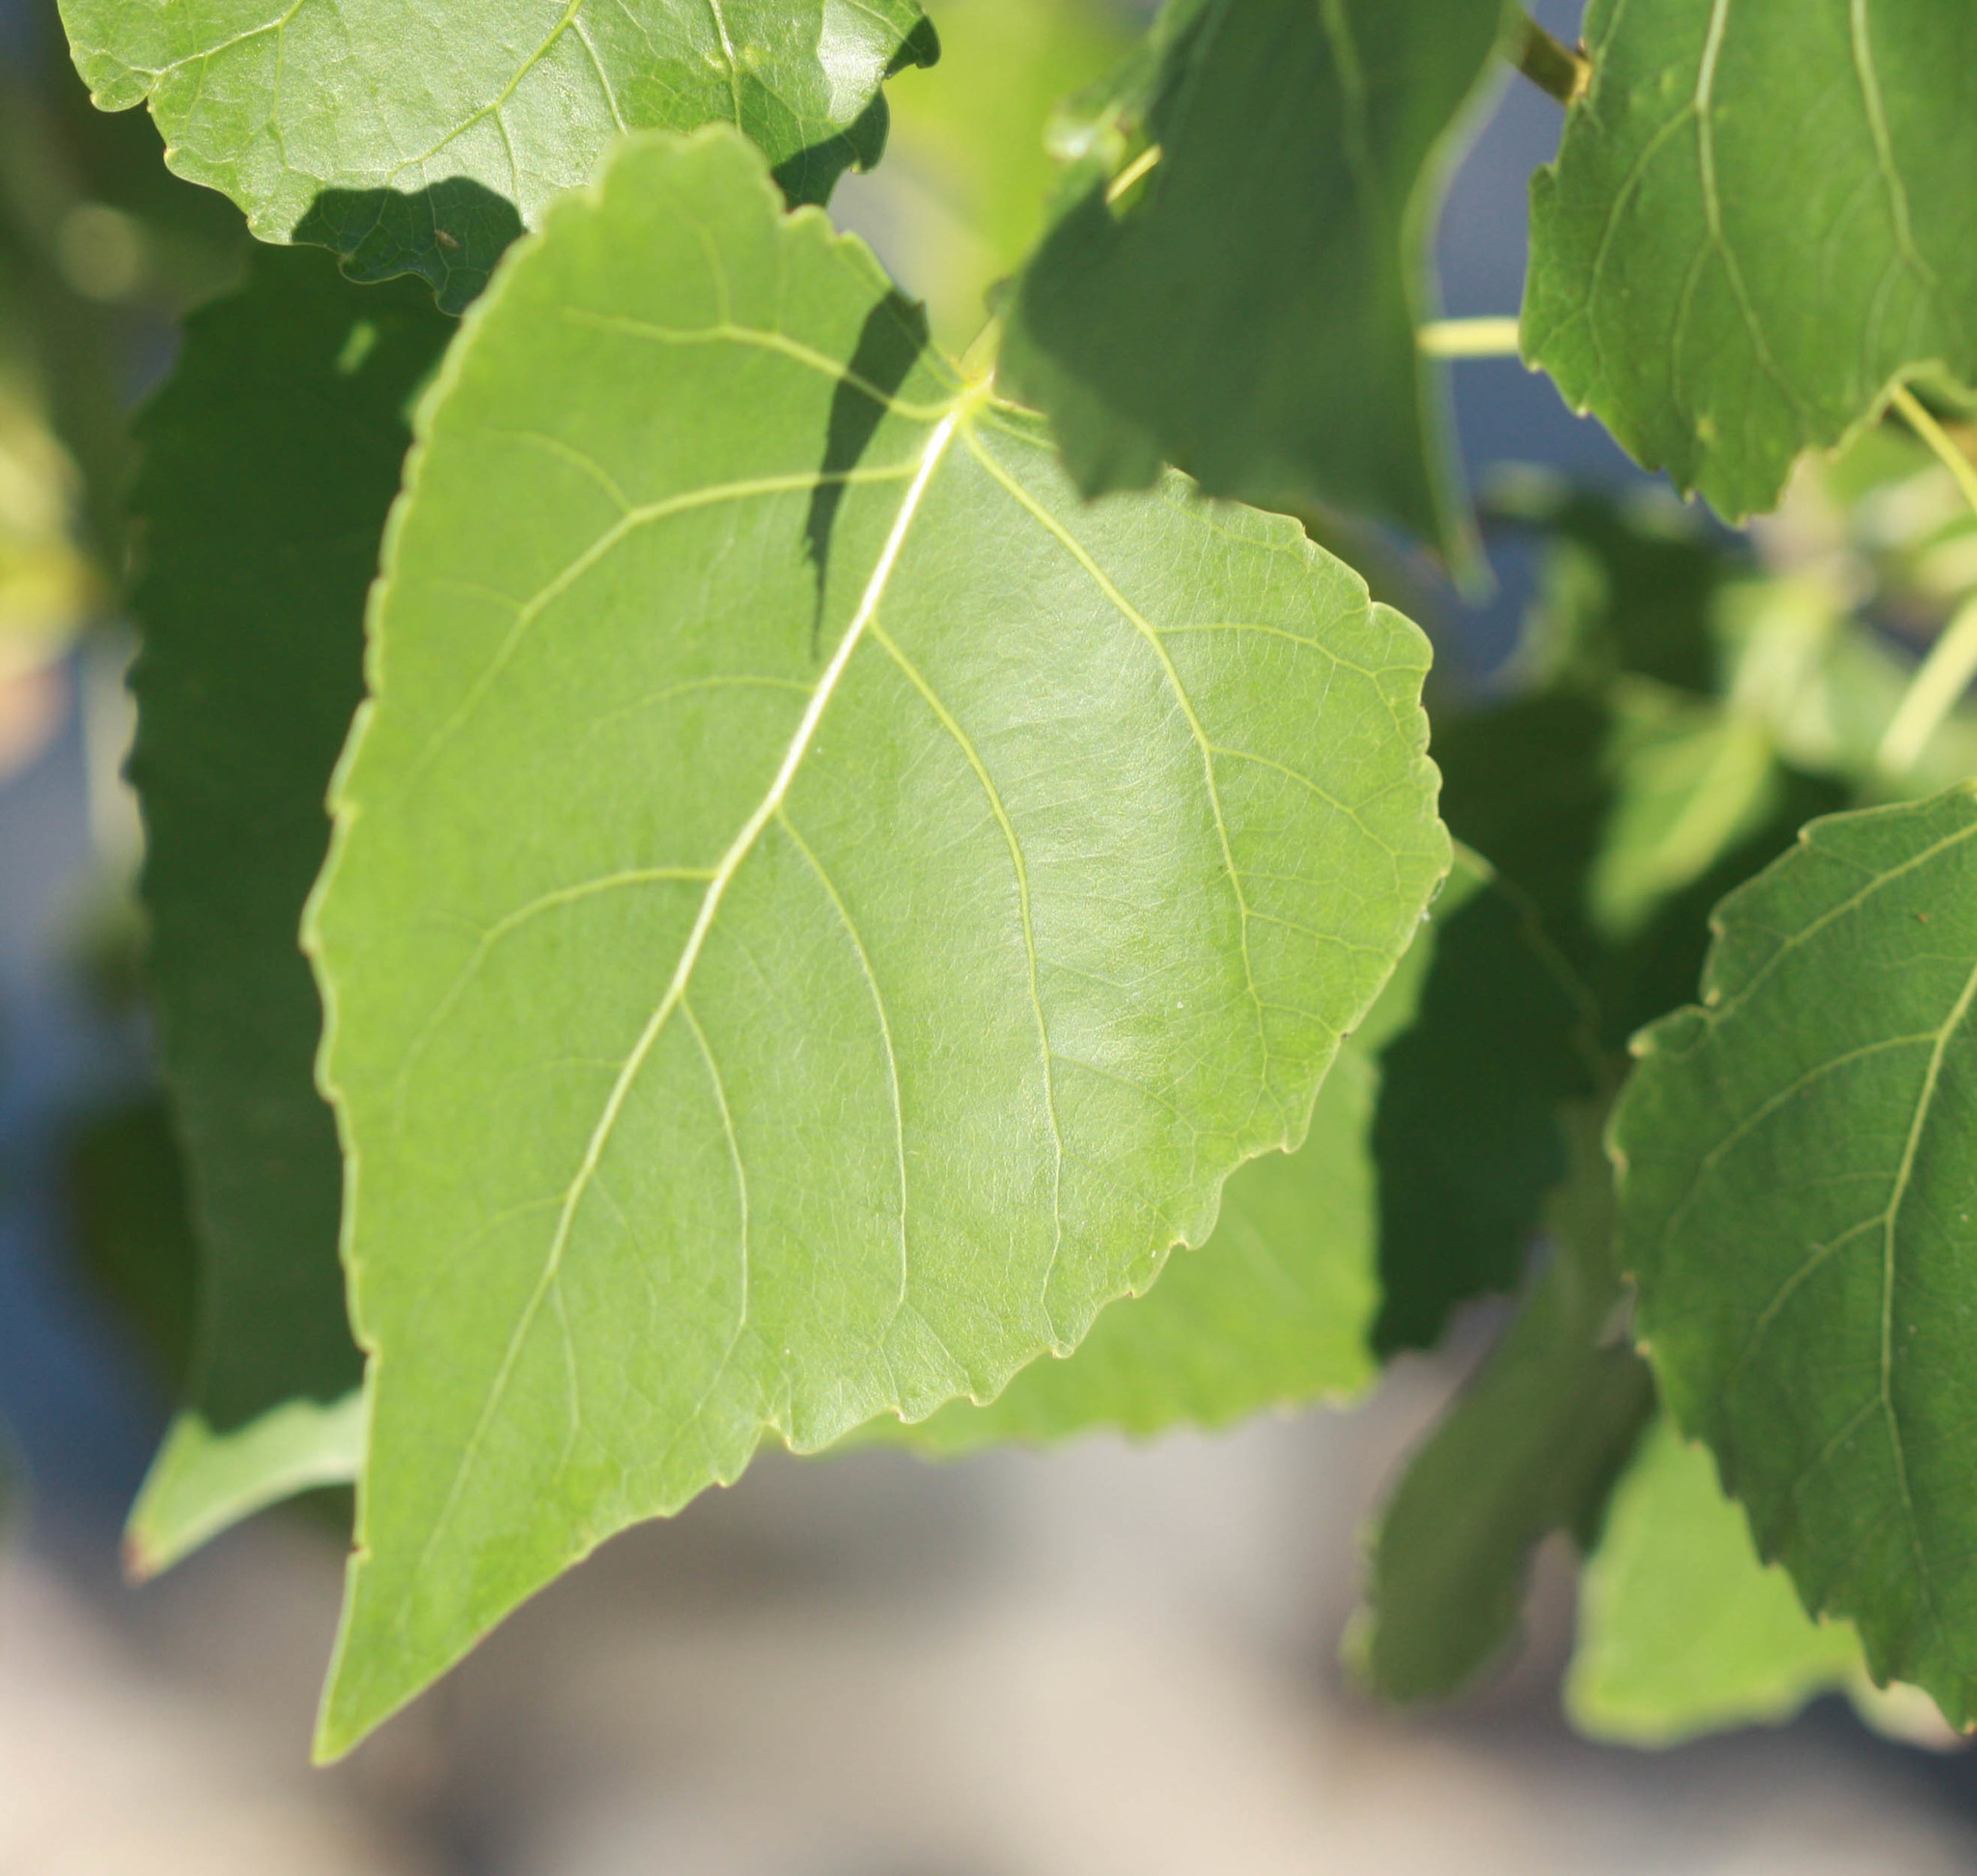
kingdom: Plantae
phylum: Tracheophyta
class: Magnoliopsida
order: Malpighiales
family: Salicaceae
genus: Populus
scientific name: Populus fremontii
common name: Fremont's cottonwood
